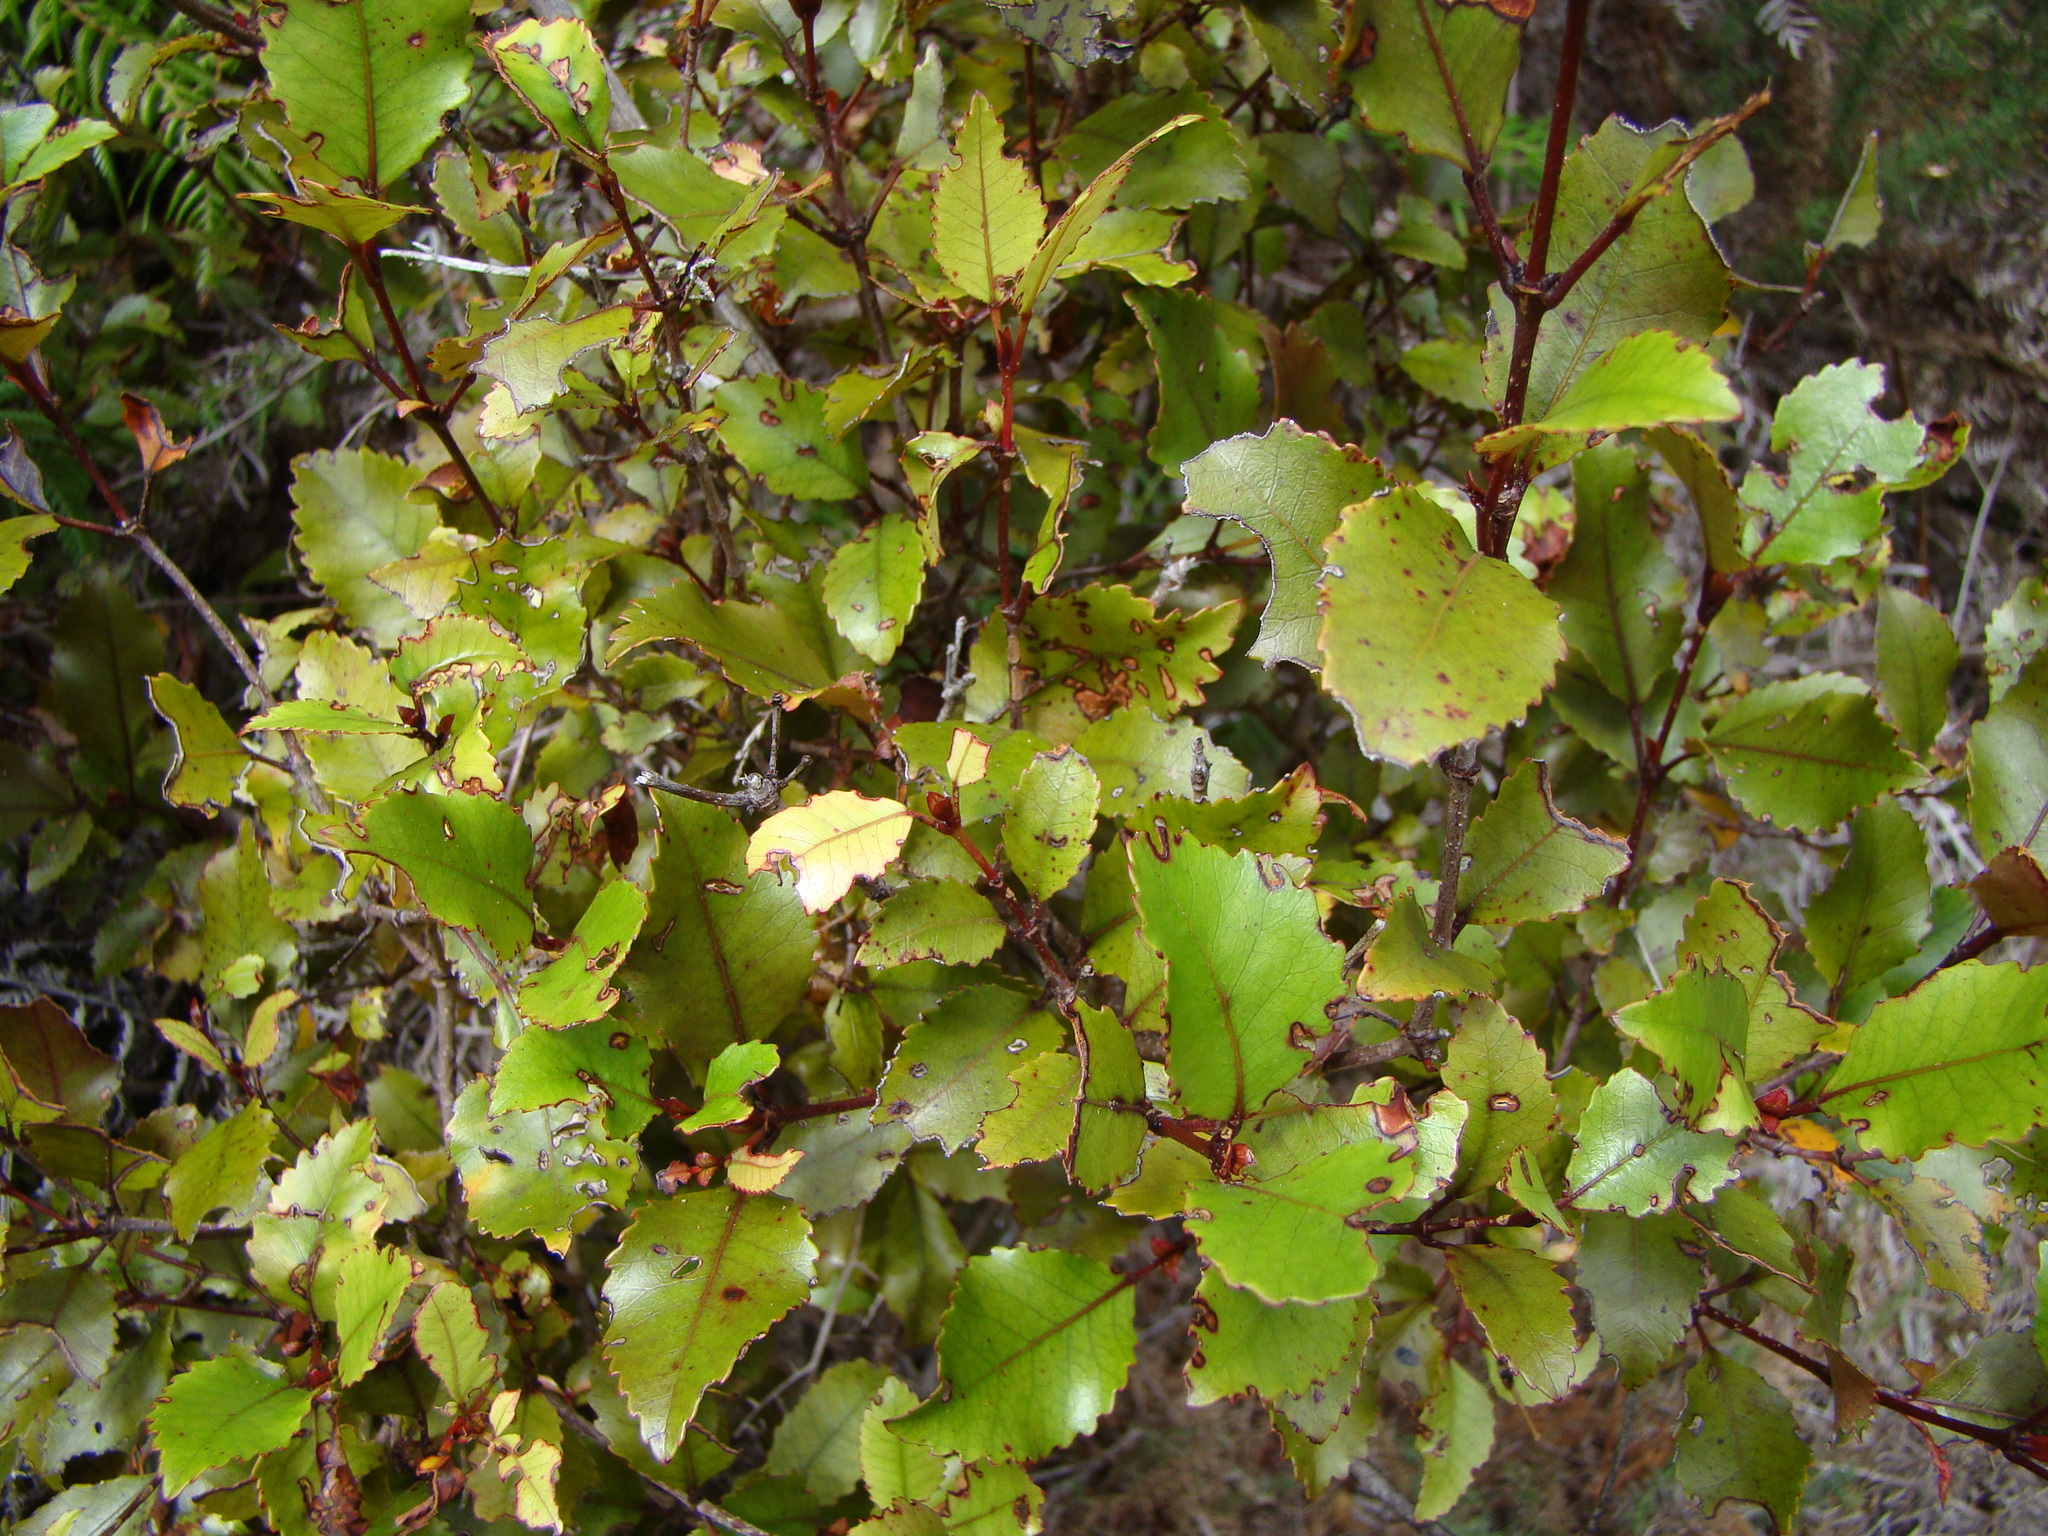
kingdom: Plantae
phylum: Tracheophyta
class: Magnoliopsida
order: Oxalidales
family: Cunoniaceae
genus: Pterophylla
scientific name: Pterophylla racemosa
